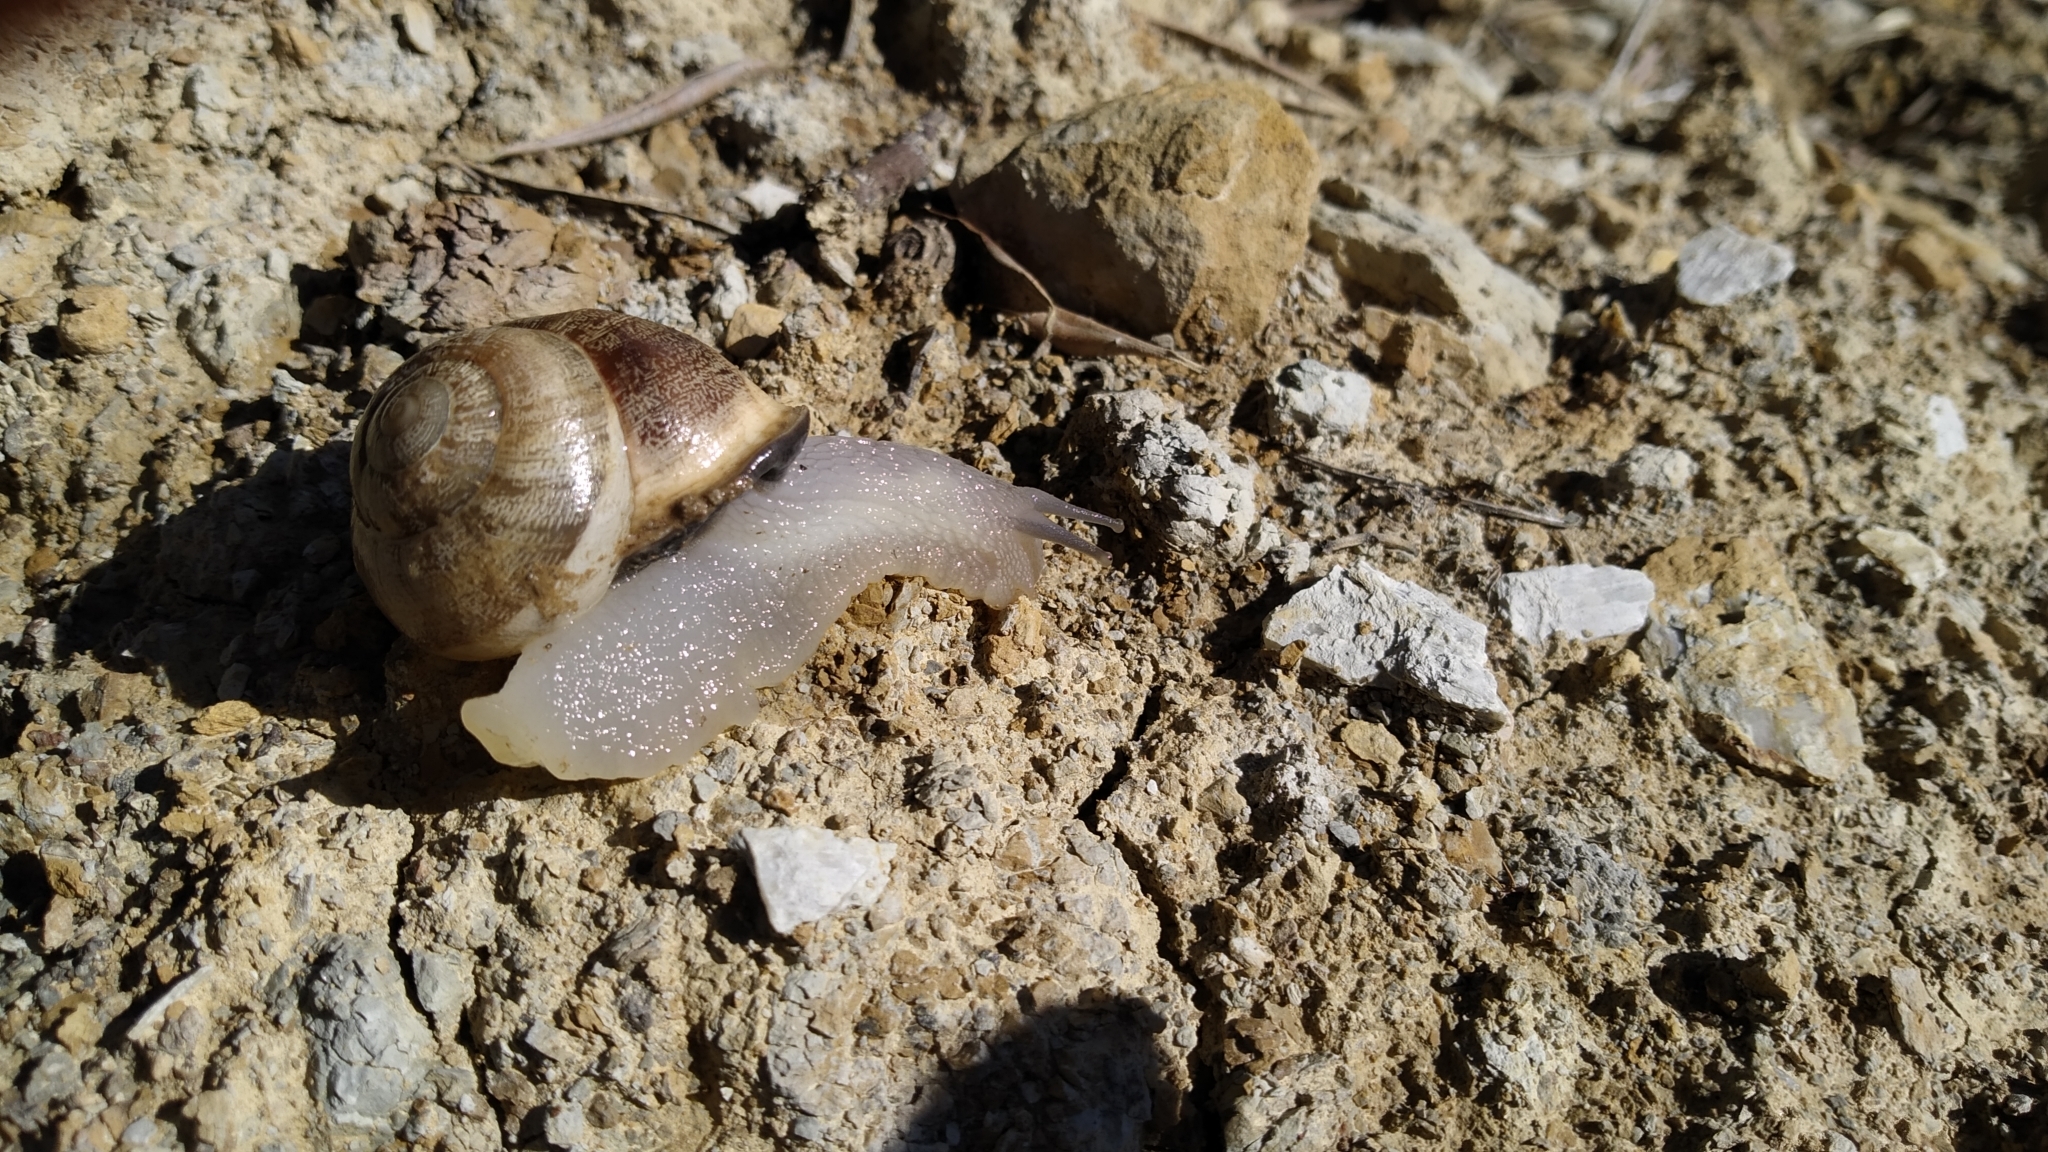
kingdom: Animalia
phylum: Mollusca
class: Gastropoda
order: Stylommatophora
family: Helicidae
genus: Eobania
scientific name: Eobania vermiculata
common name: Chocolateband snail
